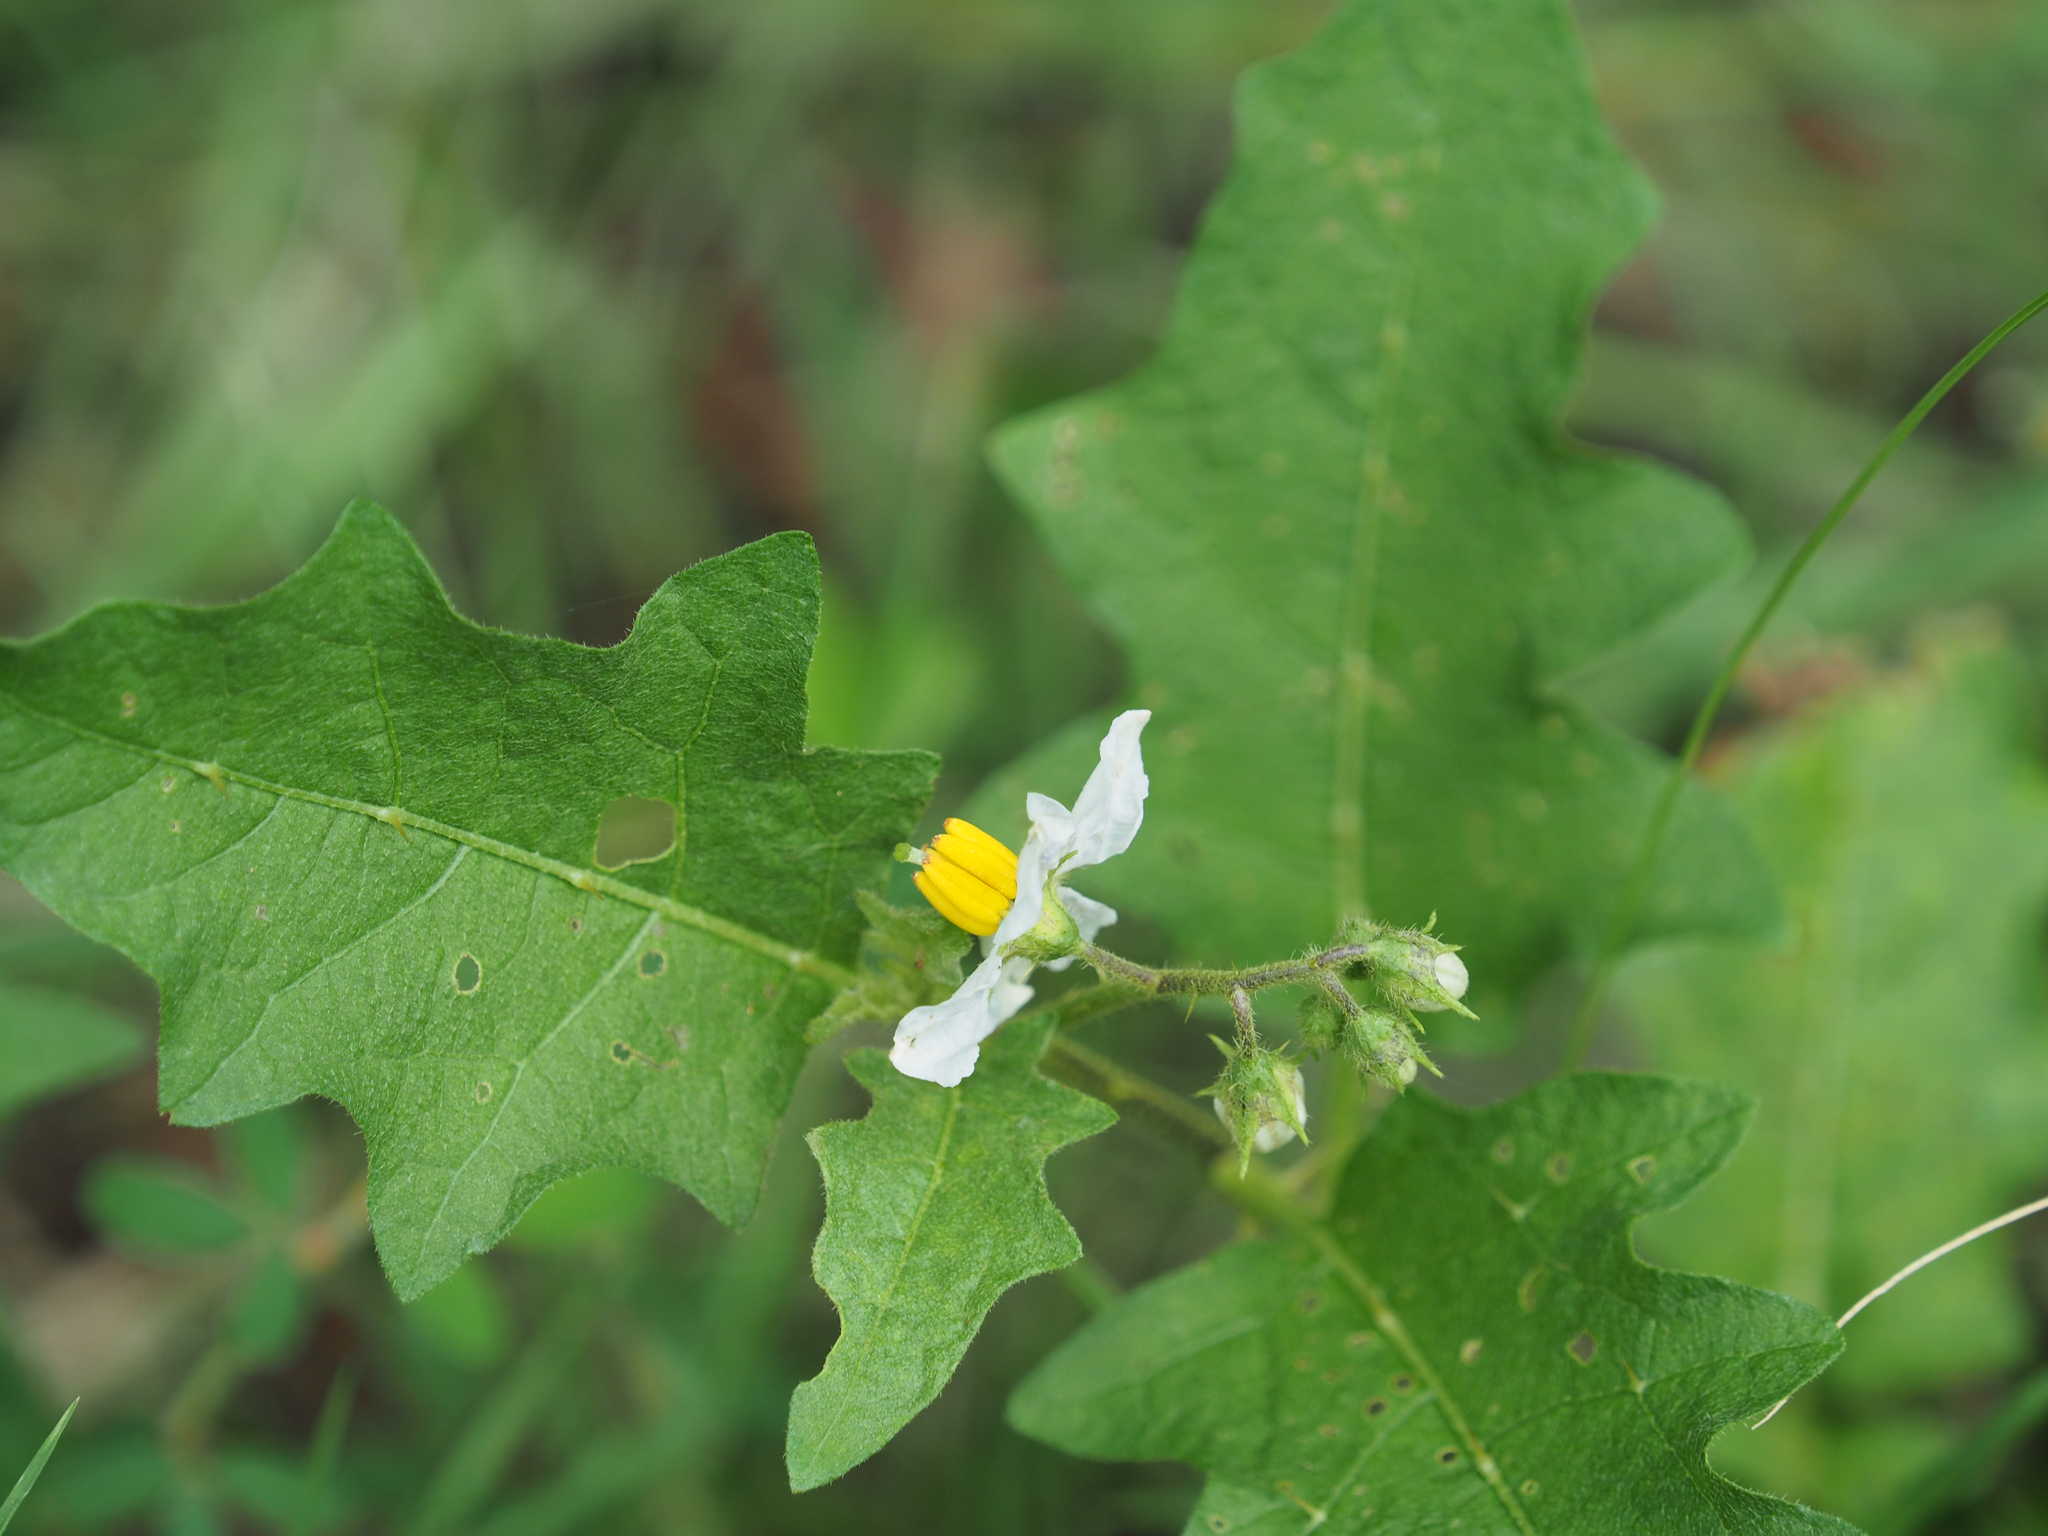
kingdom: Plantae
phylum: Tracheophyta
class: Magnoliopsida
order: Solanales
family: Solanaceae
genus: Solanum
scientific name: Solanum carolinense
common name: Horse-nettle
